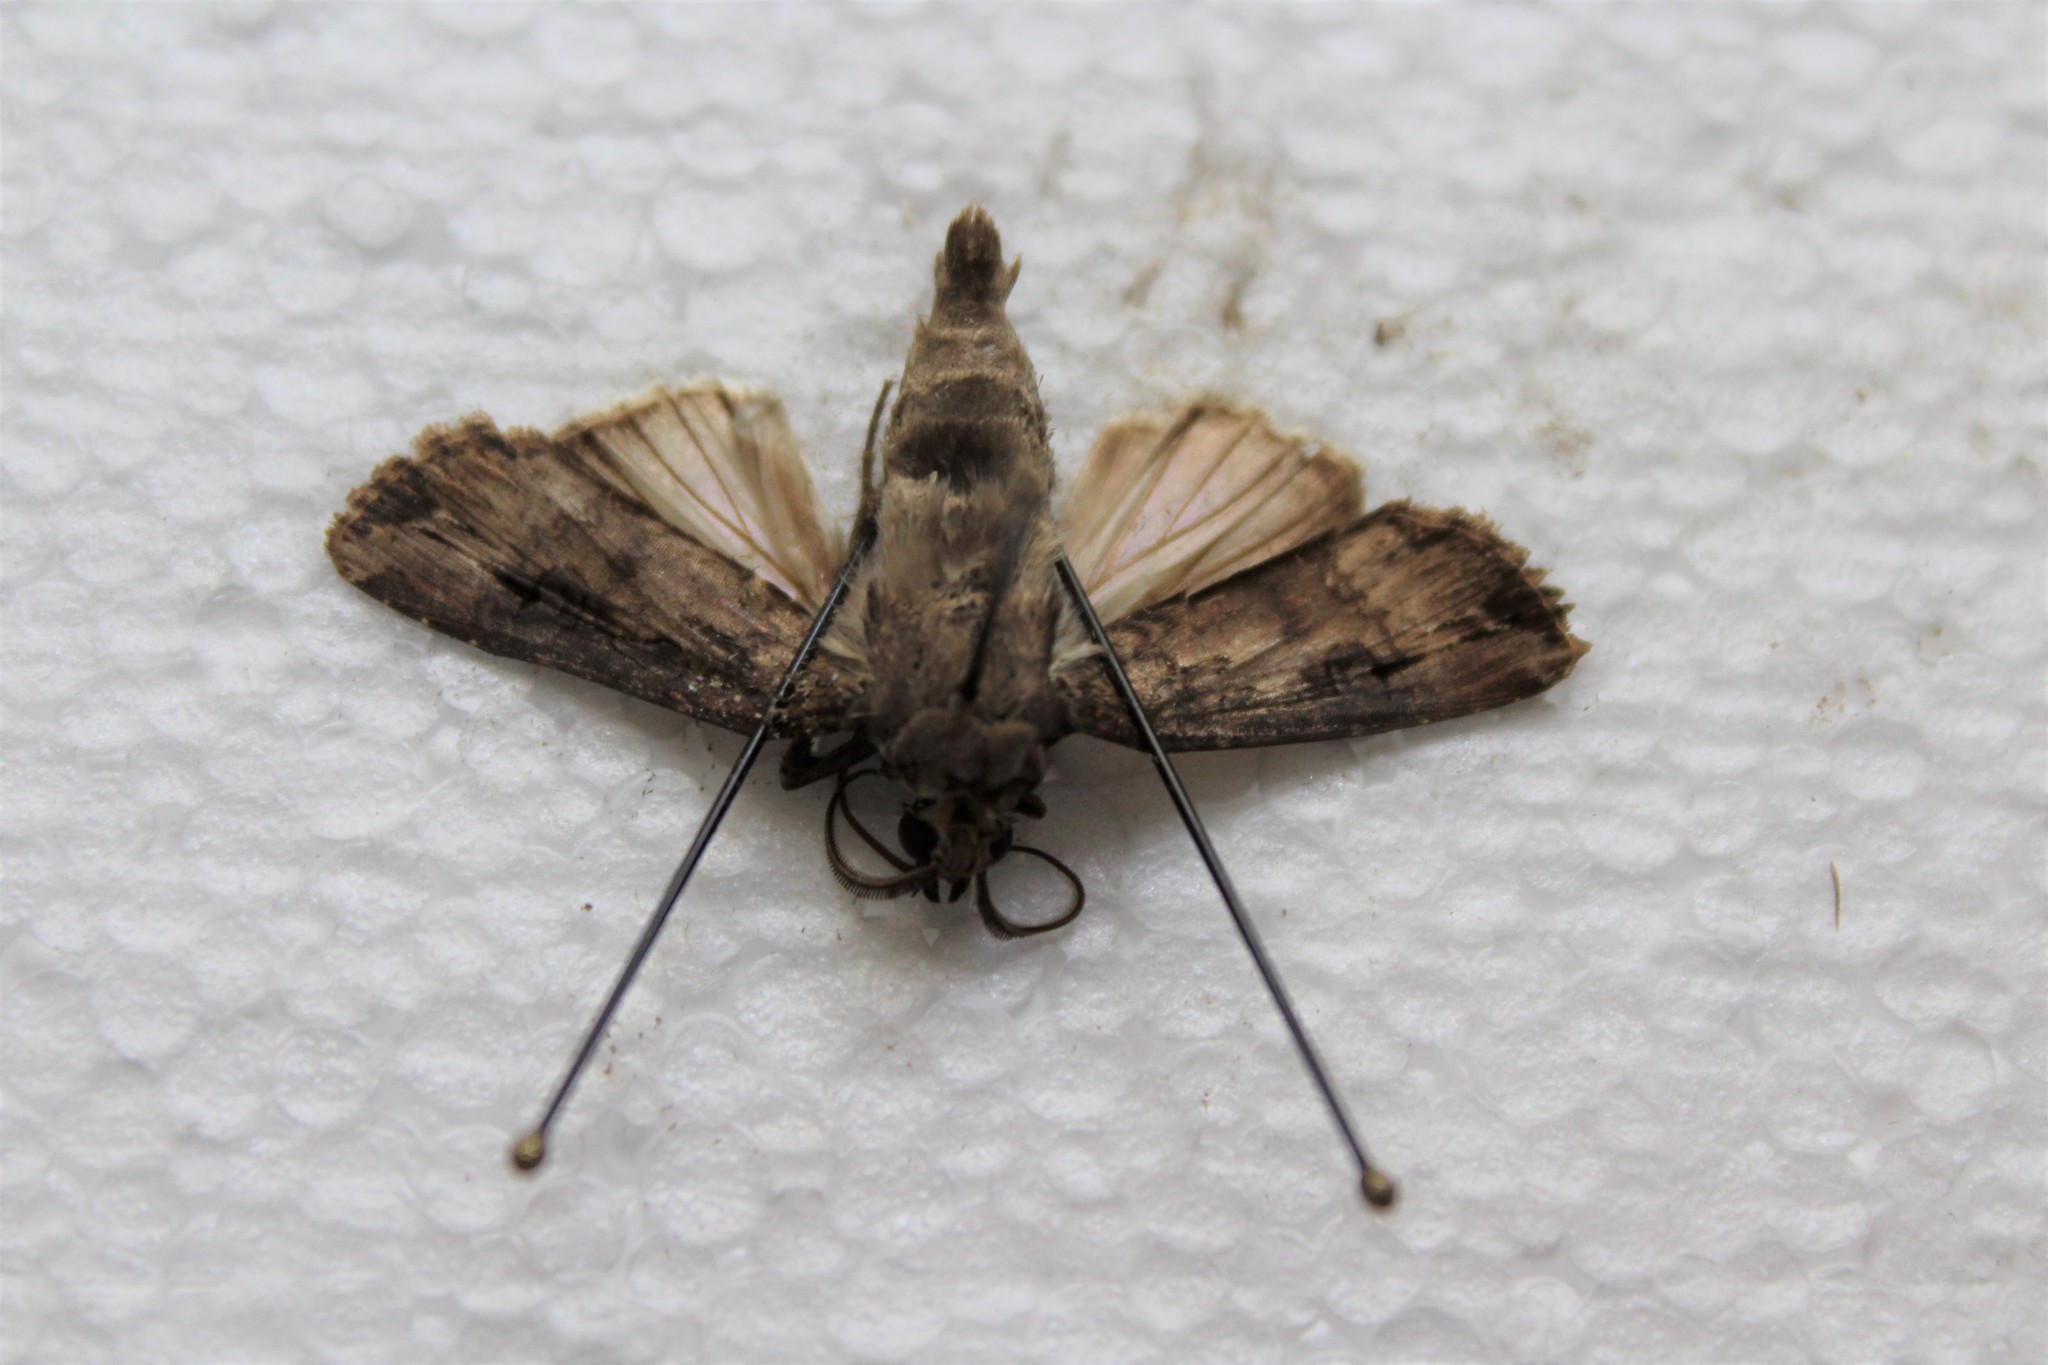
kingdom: Animalia
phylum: Arthropoda
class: Insecta
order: Lepidoptera
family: Noctuidae
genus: Agrotis
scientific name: Agrotis ipsilon
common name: Dark sword-grass
